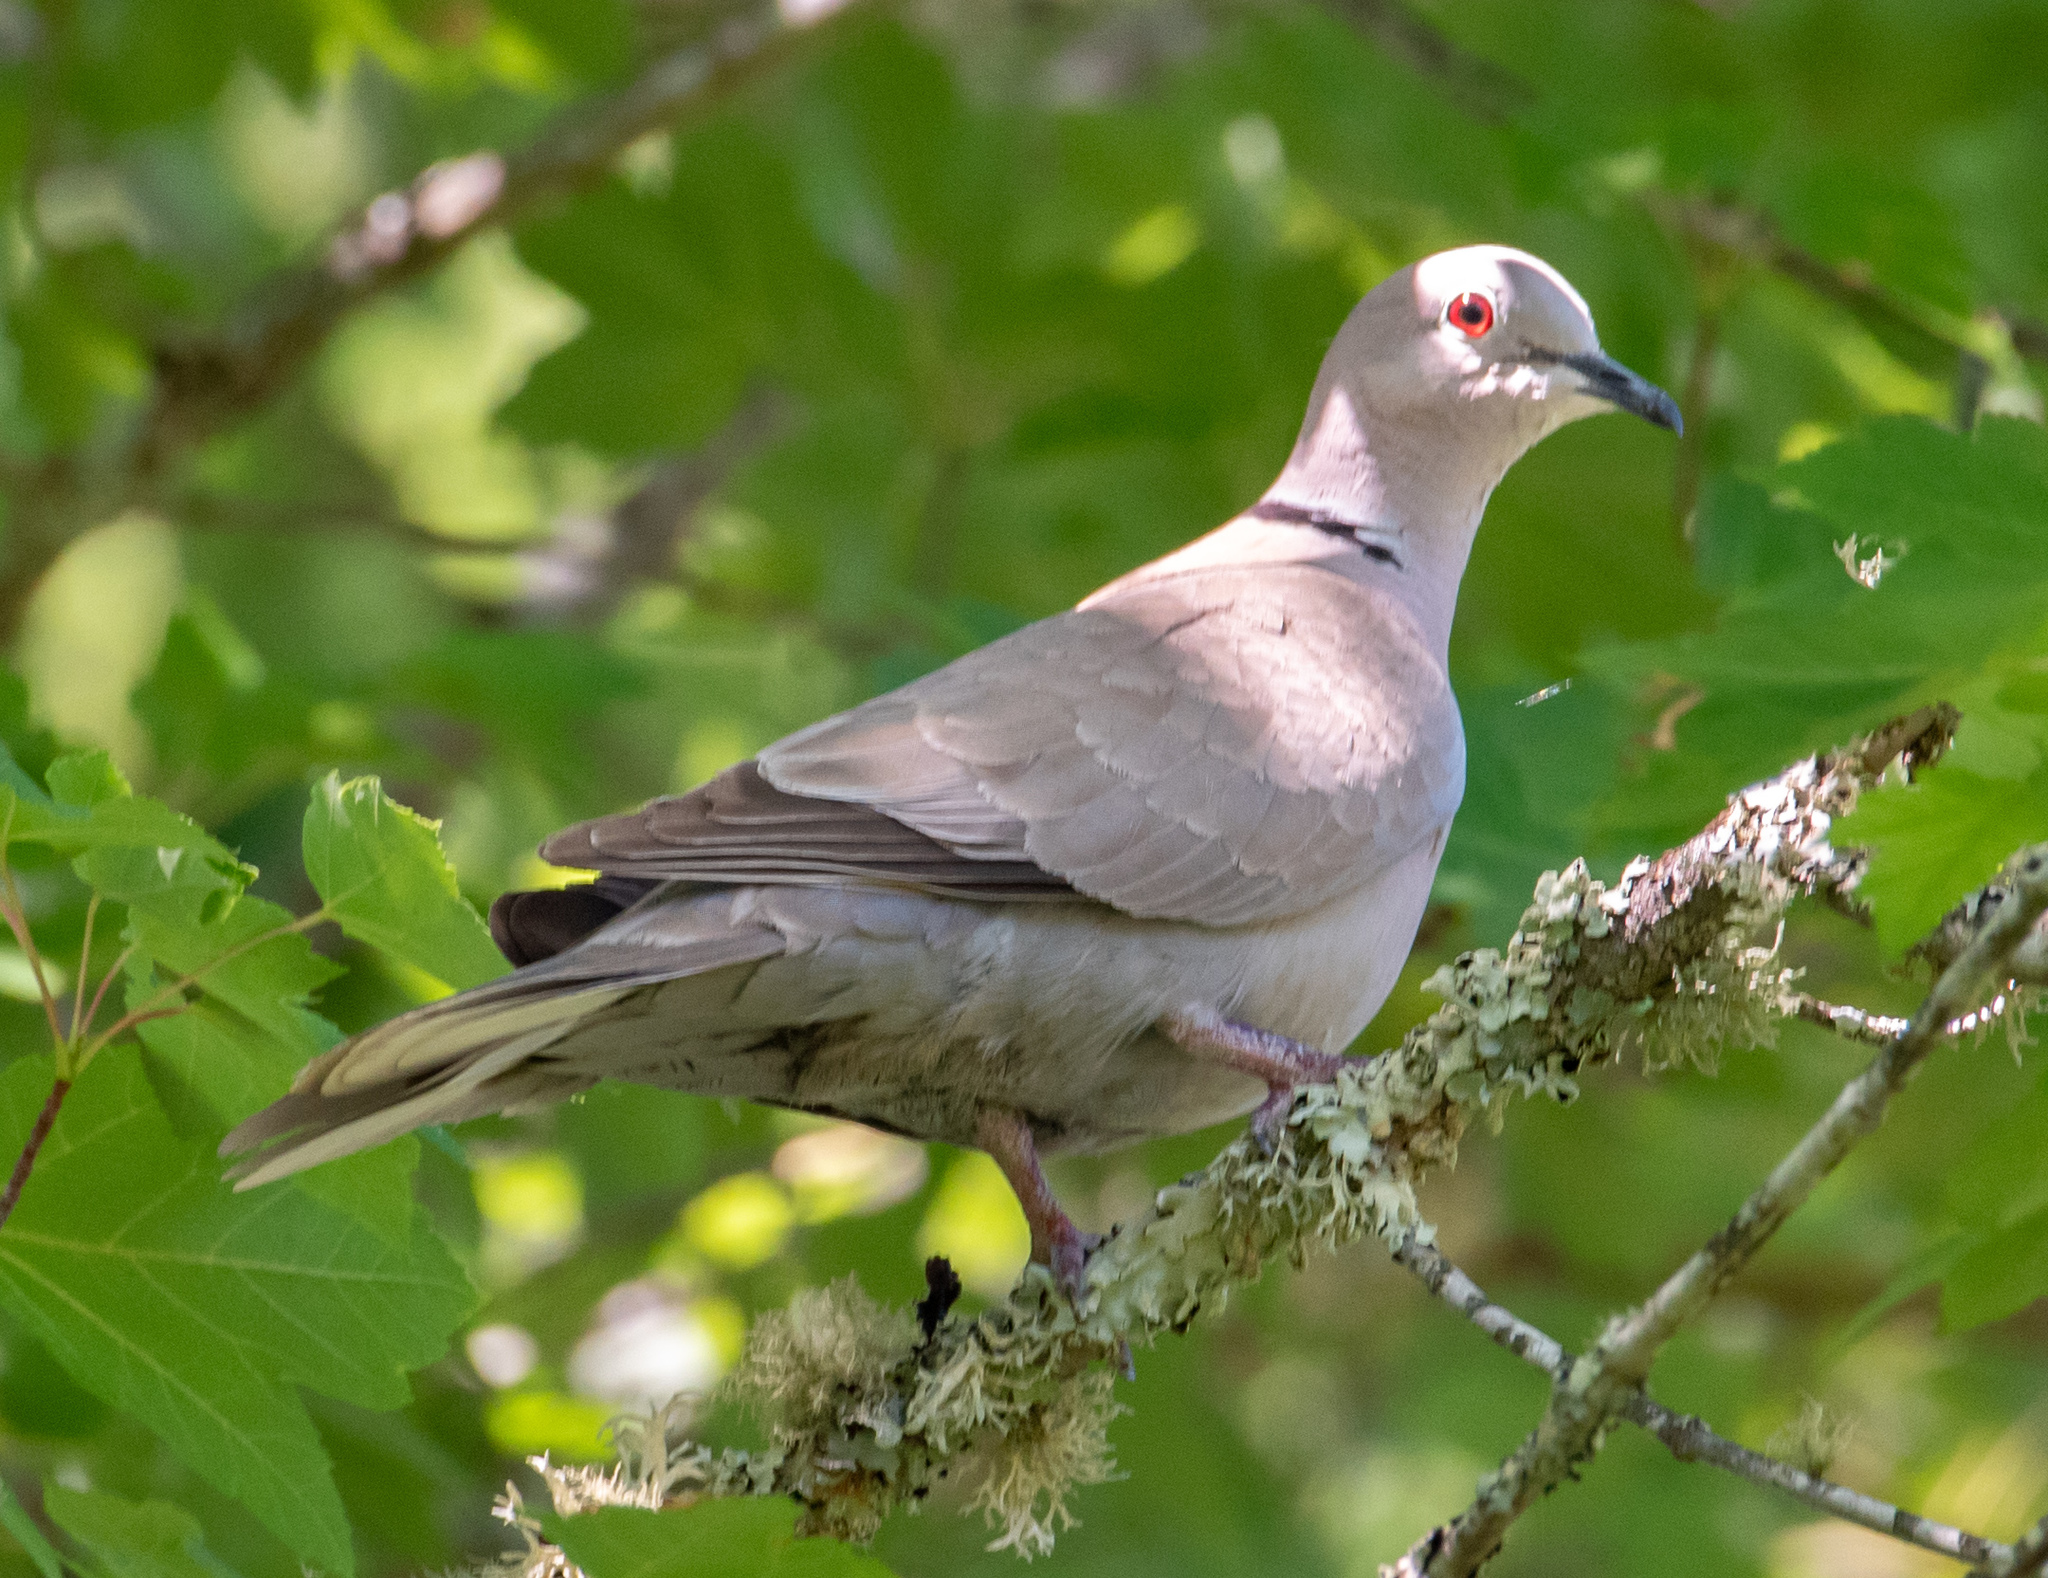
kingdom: Animalia
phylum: Chordata
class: Aves
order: Columbiformes
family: Columbidae
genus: Streptopelia
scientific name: Streptopelia decaocto
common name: Eurasian collared dove
